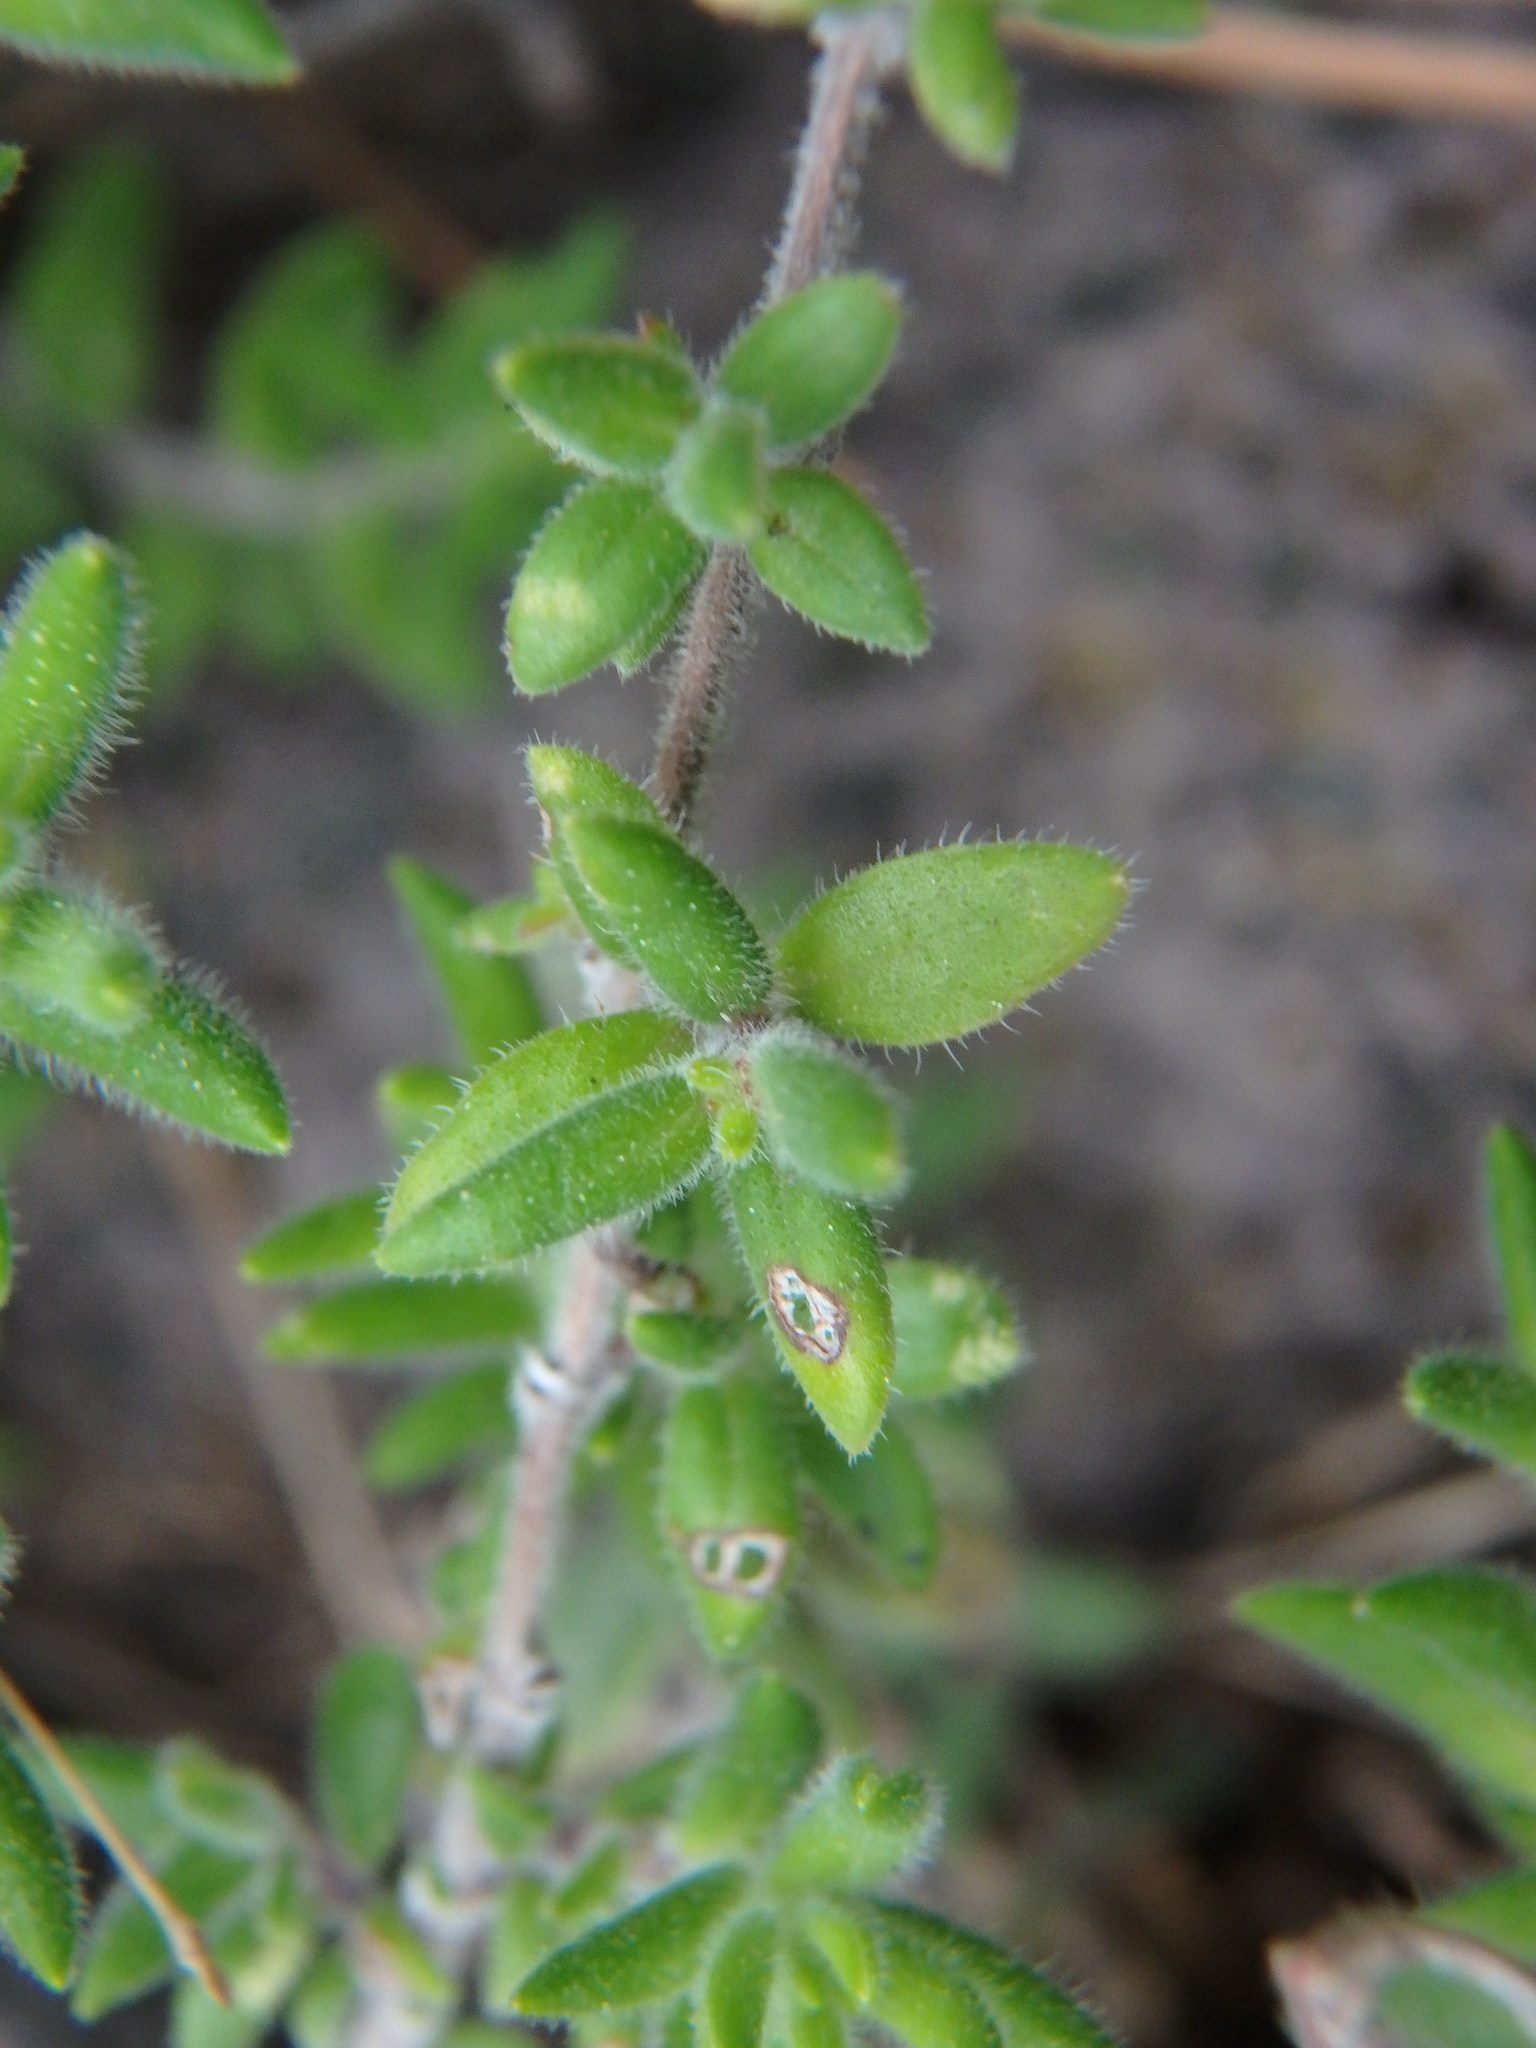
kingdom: Plantae
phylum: Tracheophyta
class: Magnoliopsida
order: Lamiales
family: Lamiaceae
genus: Micromeria
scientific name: Micromeria ericifolia
